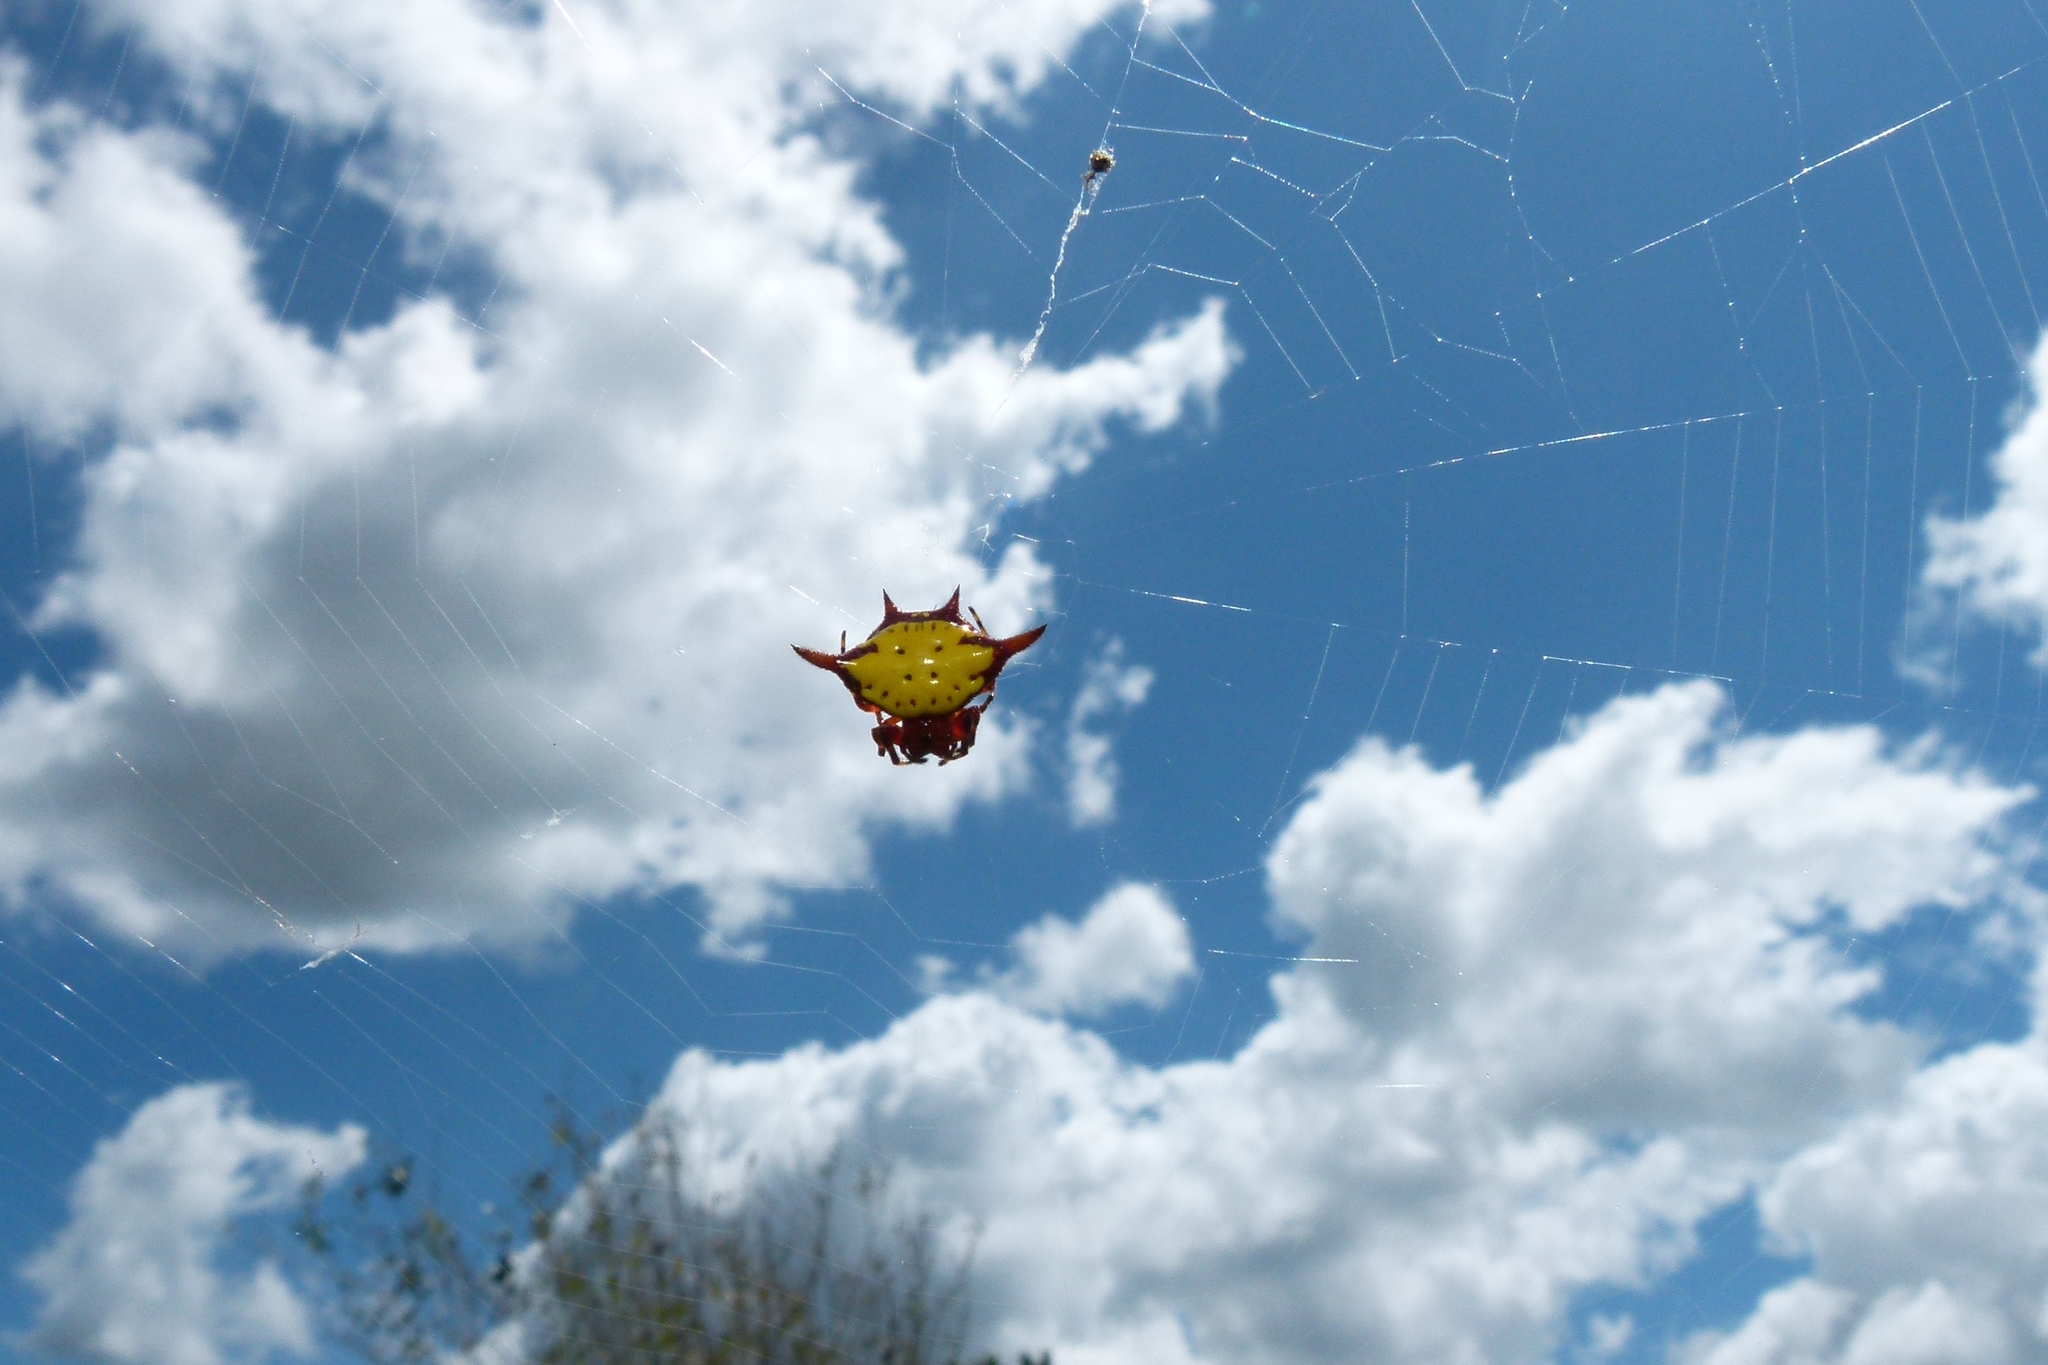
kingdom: Animalia
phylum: Arthropoda
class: Arachnida
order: Araneae
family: Araneidae
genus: Gasteracantha
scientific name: Gasteracantha cancriformis
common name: Orb weavers
